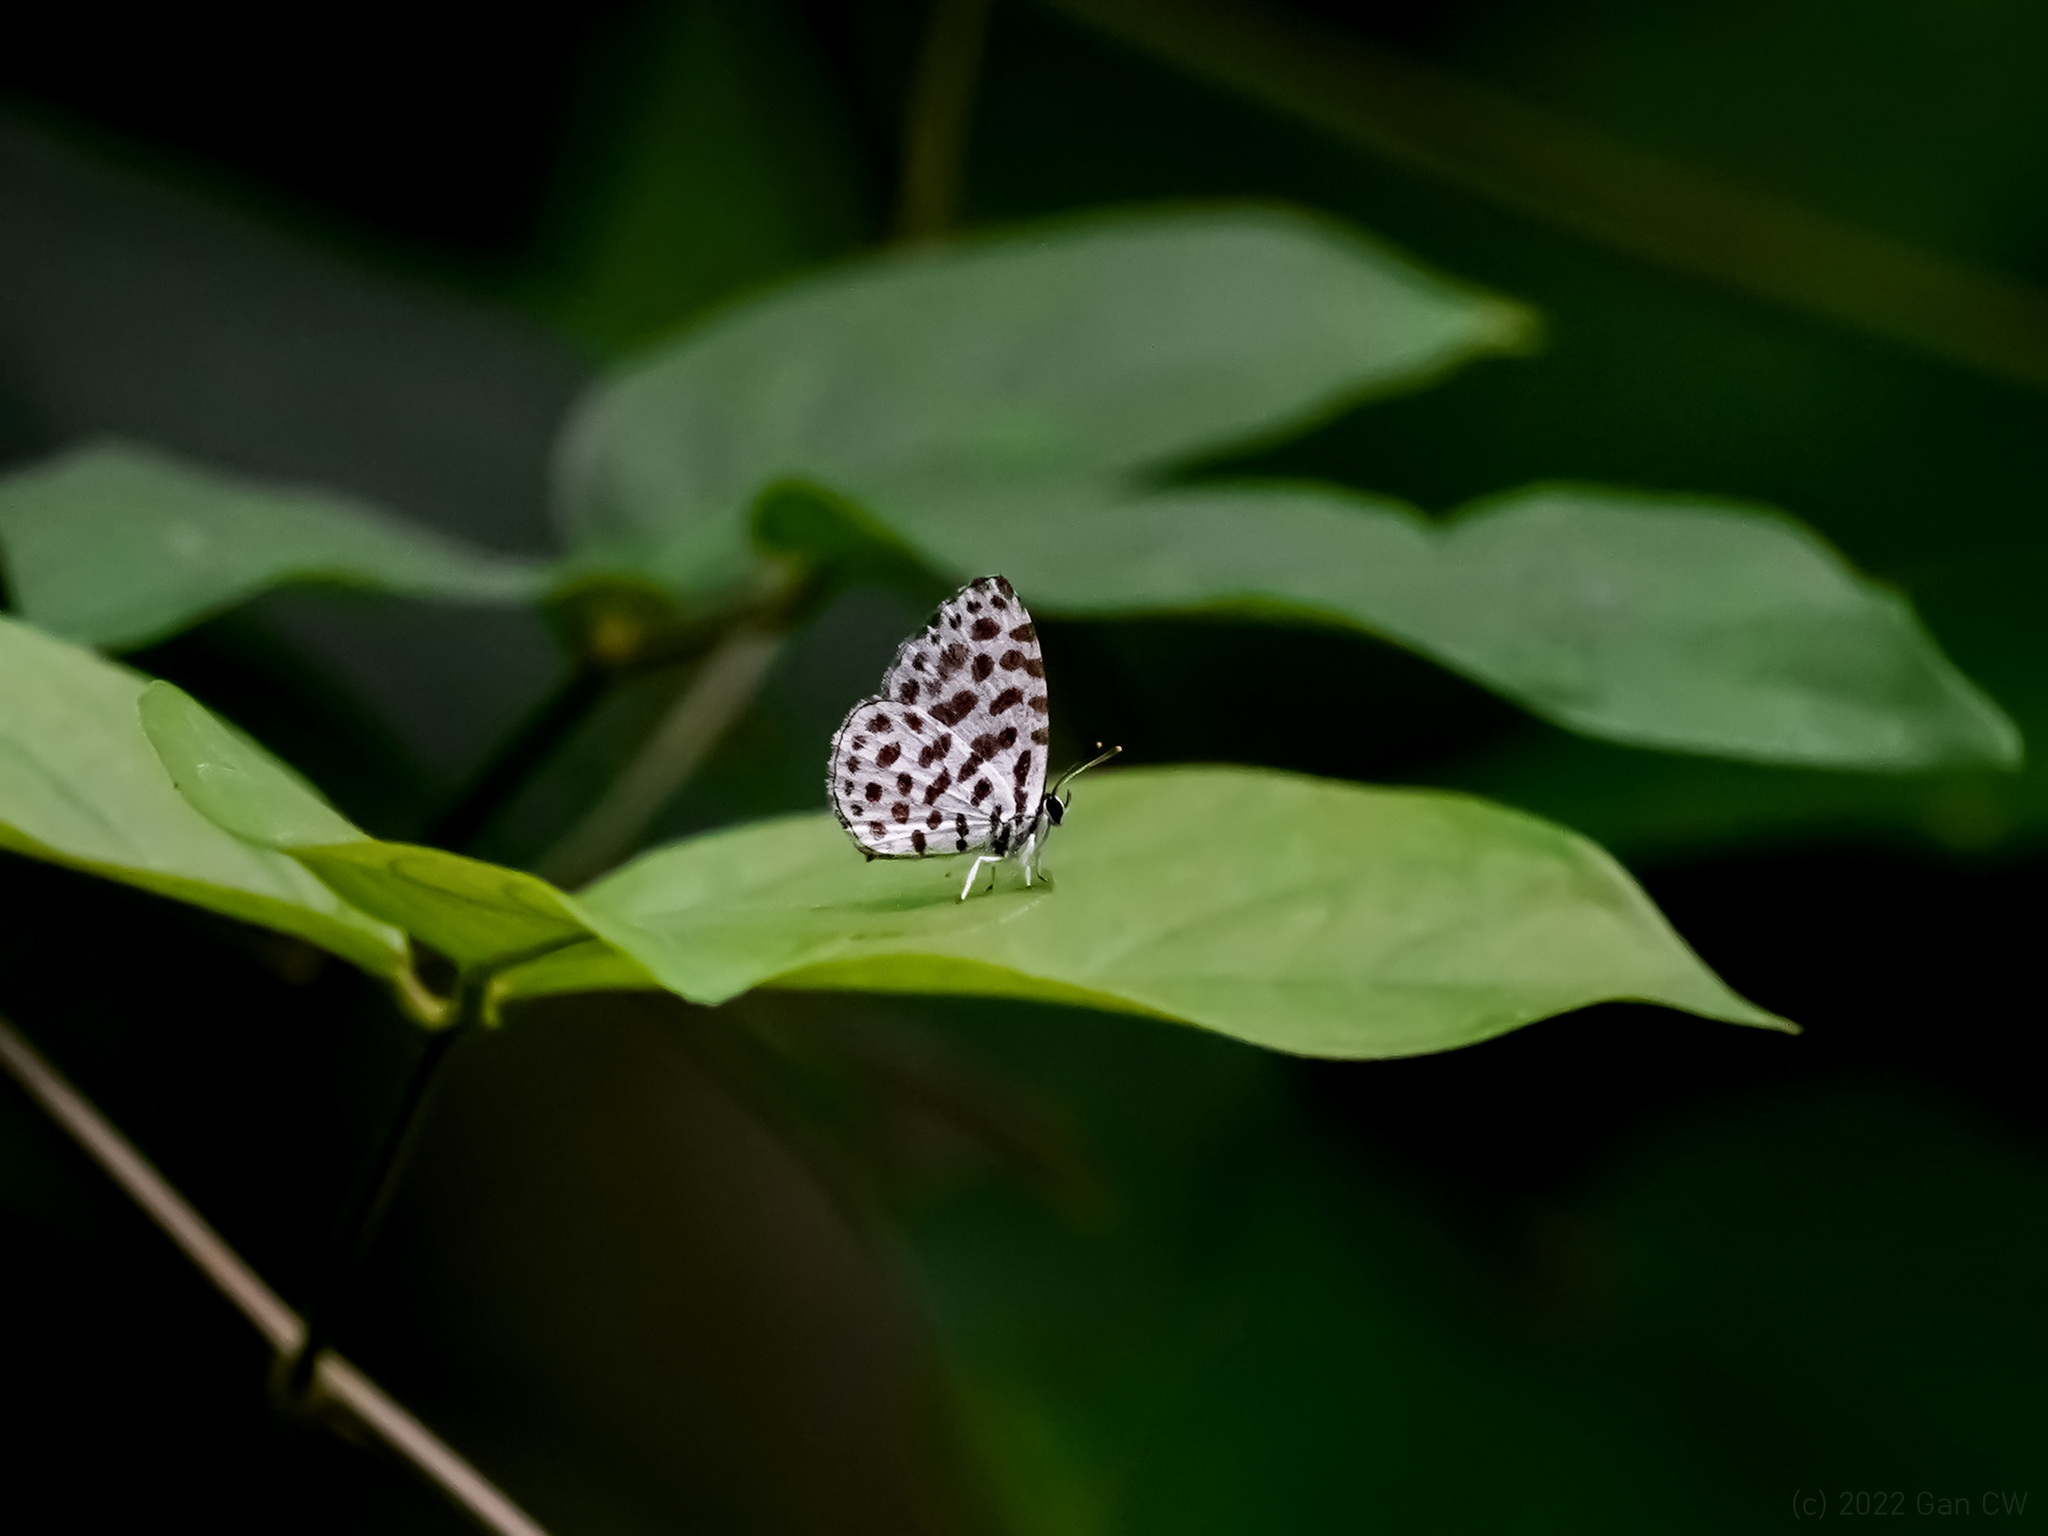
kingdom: Animalia
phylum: Arthropoda
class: Insecta
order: Lepidoptera
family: Lycaenidae
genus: Taraka
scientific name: Taraka hamada
